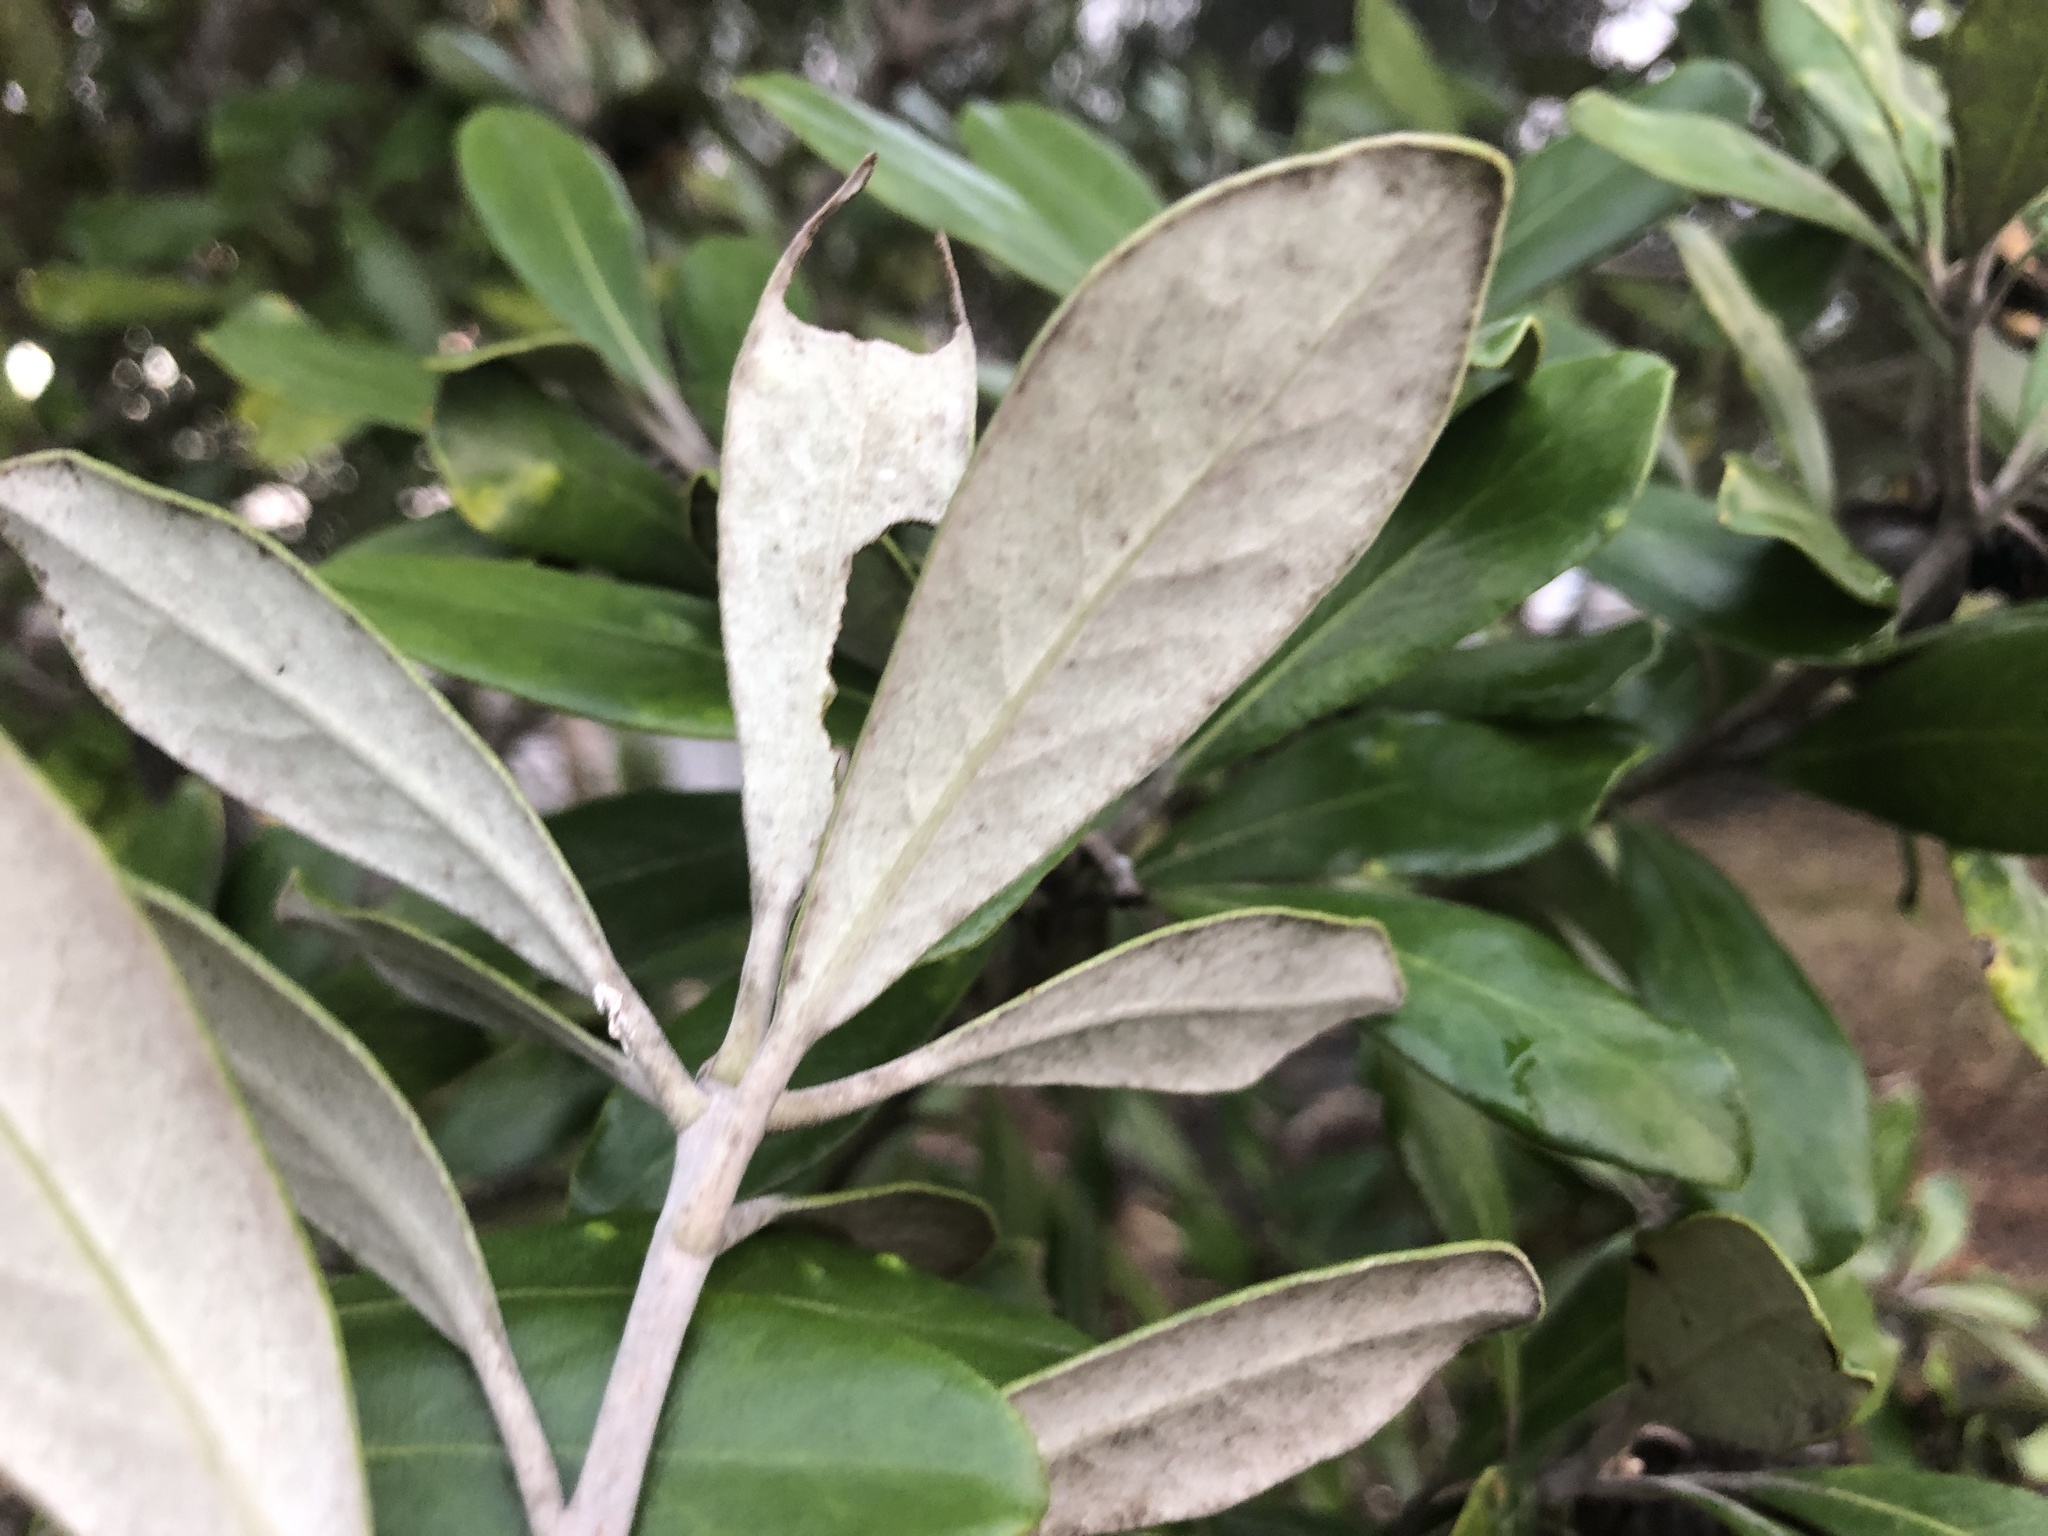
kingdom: Plantae
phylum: Tracheophyta
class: Magnoliopsida
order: Apiales
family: Pittosporaceae
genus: Pittosporum
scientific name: Pittosporum crassifolium
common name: Karo
